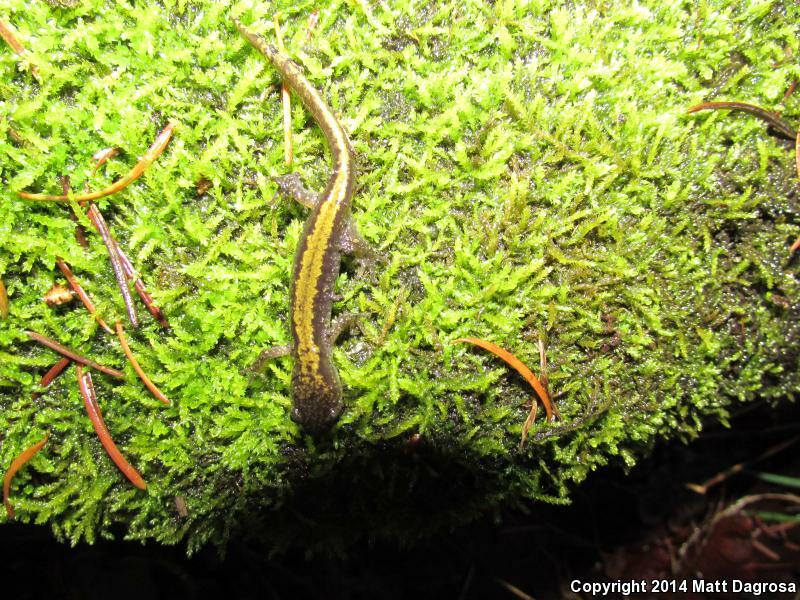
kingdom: Animalia
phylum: Chordata
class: Amphibia
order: Caudata
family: Ambystomatidae
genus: Ambystoma
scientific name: Ambystoma macrodactylum
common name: Long-toed salamander
